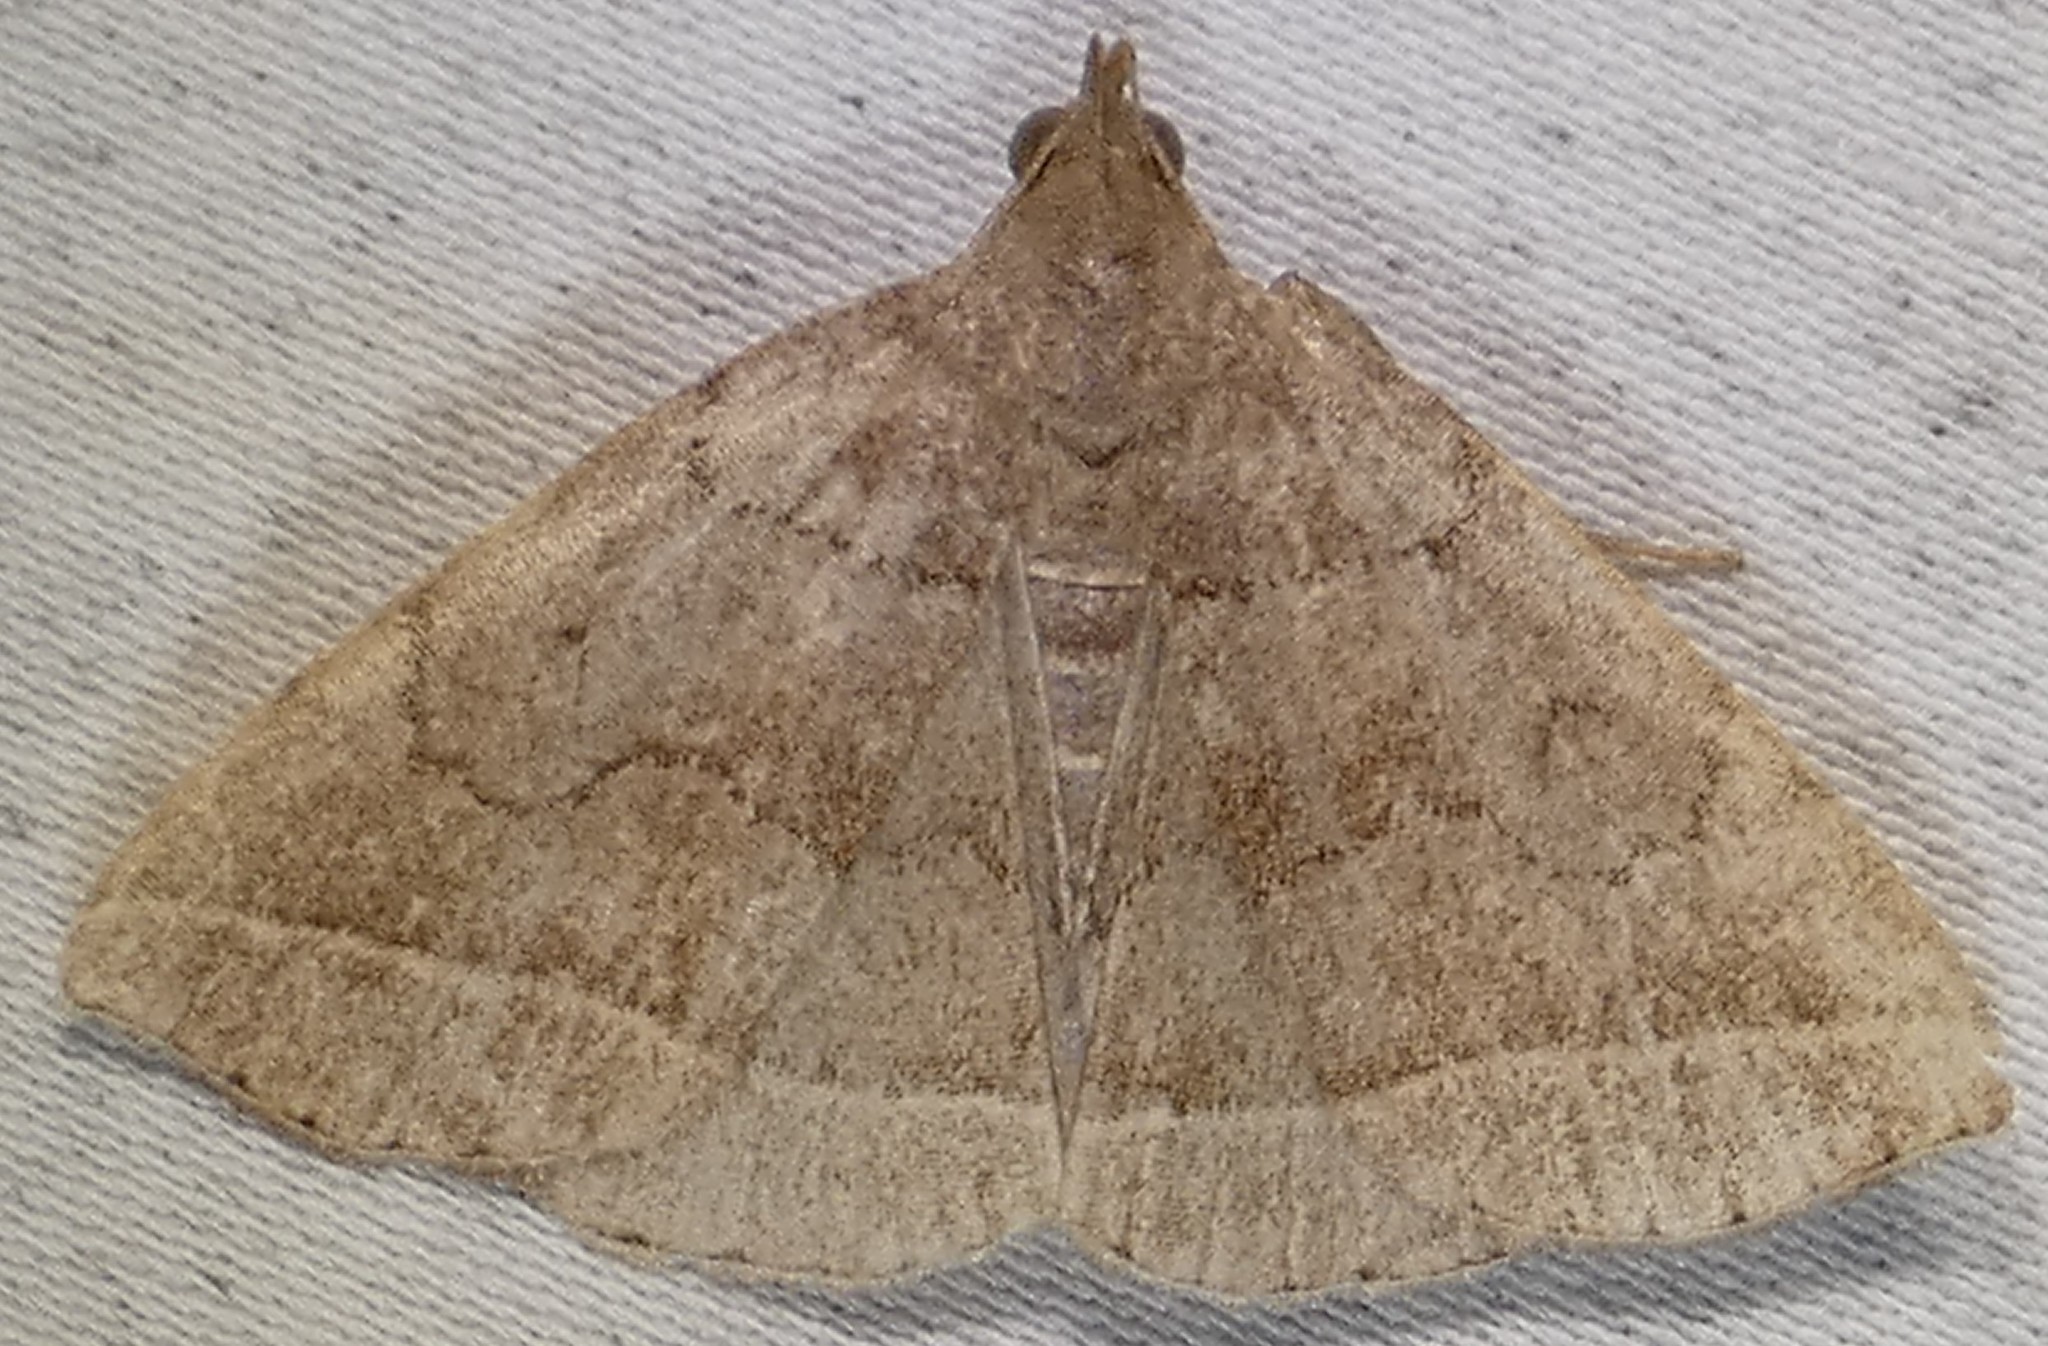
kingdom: Animalia
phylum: Arthropoda
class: Insecta
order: Lepidoptera
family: Erebidae
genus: Zanclognatha
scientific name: Zanclognatha jacchusalis
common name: Yellowish zanclognatha
